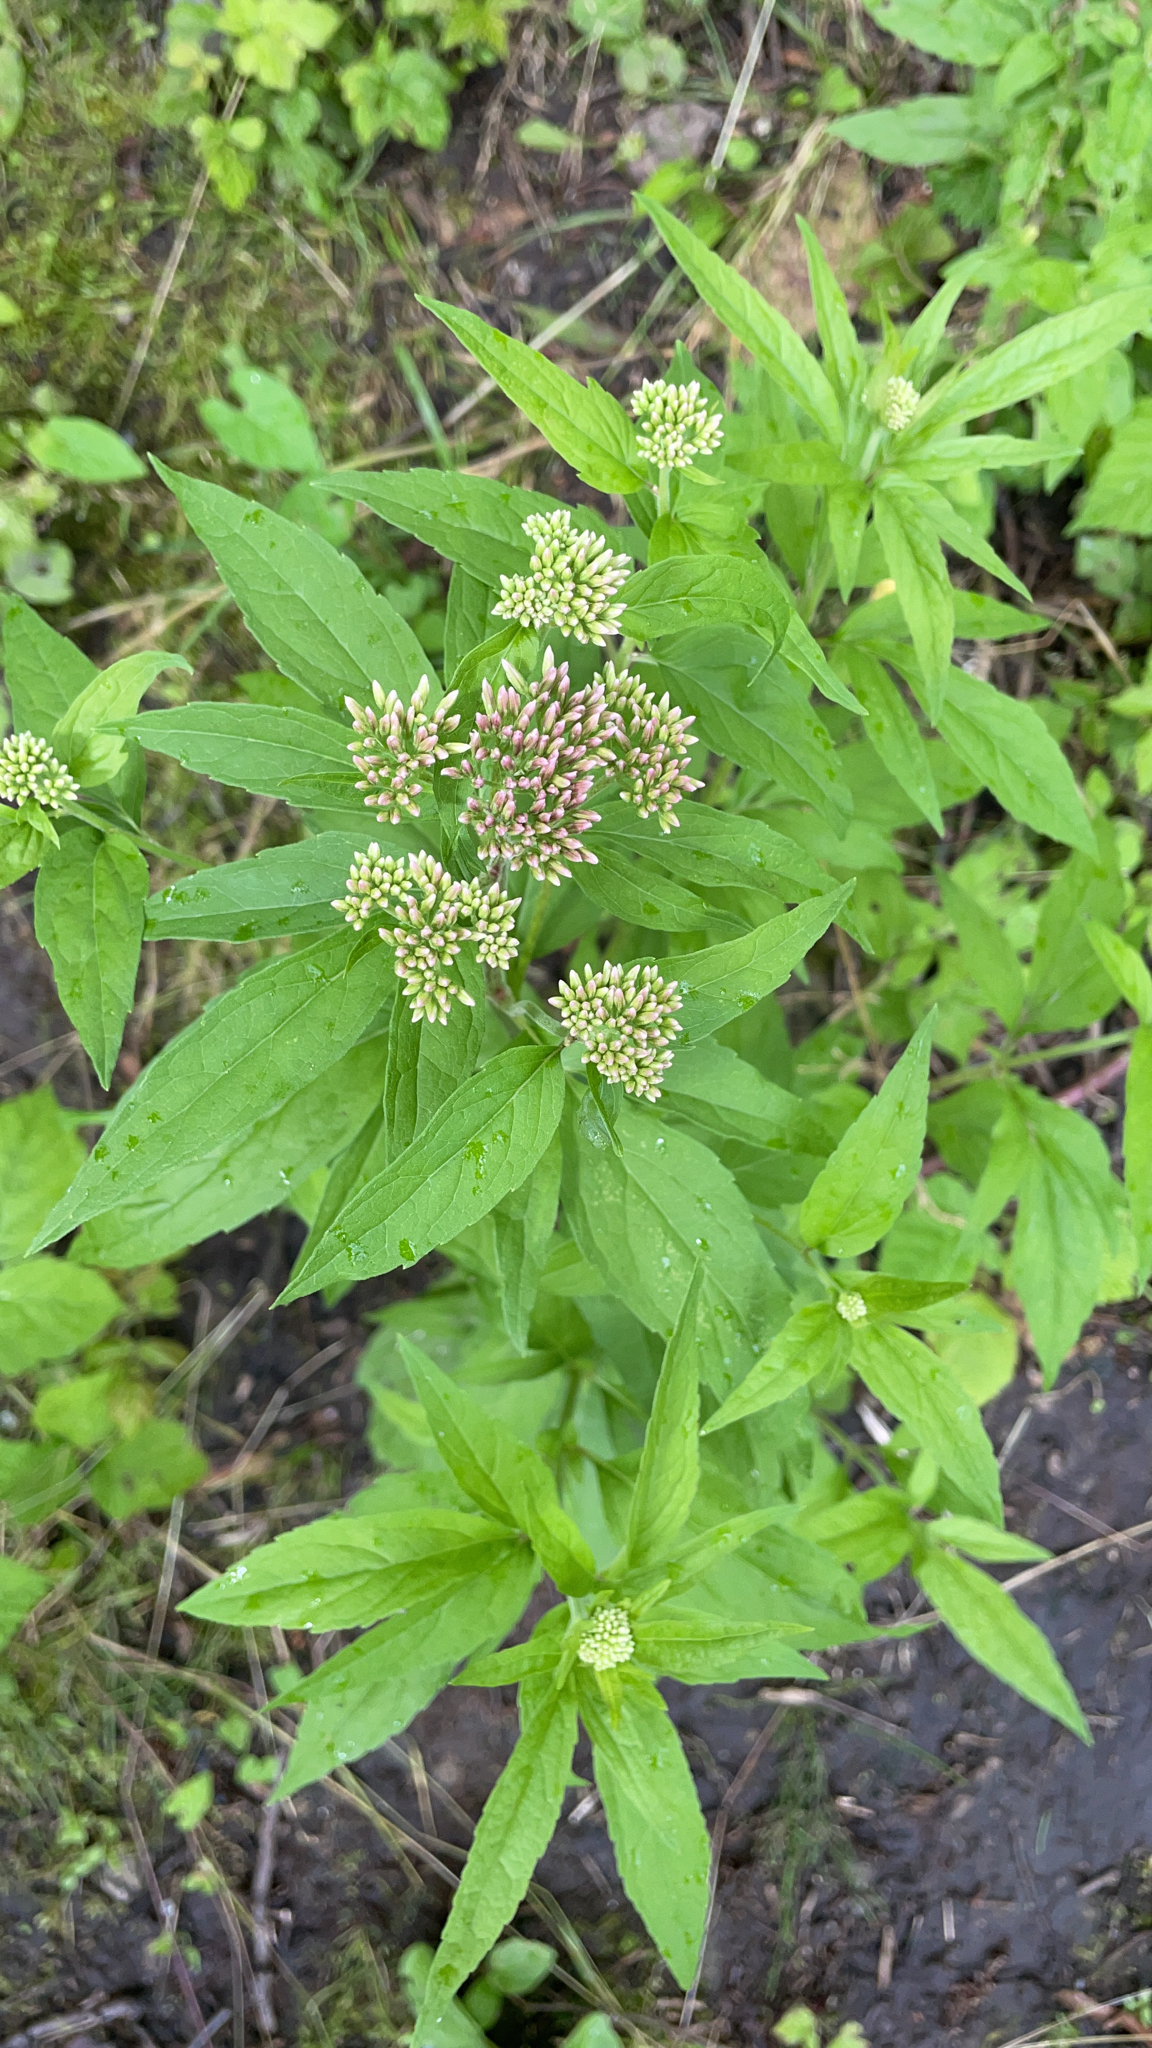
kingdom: Plantae
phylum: Tracheophyta
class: Magnoliopsida
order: Asterales
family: Asteraceae
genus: Eupatorium
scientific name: Eupatorium cannabinum
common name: Hemp-agrimony
